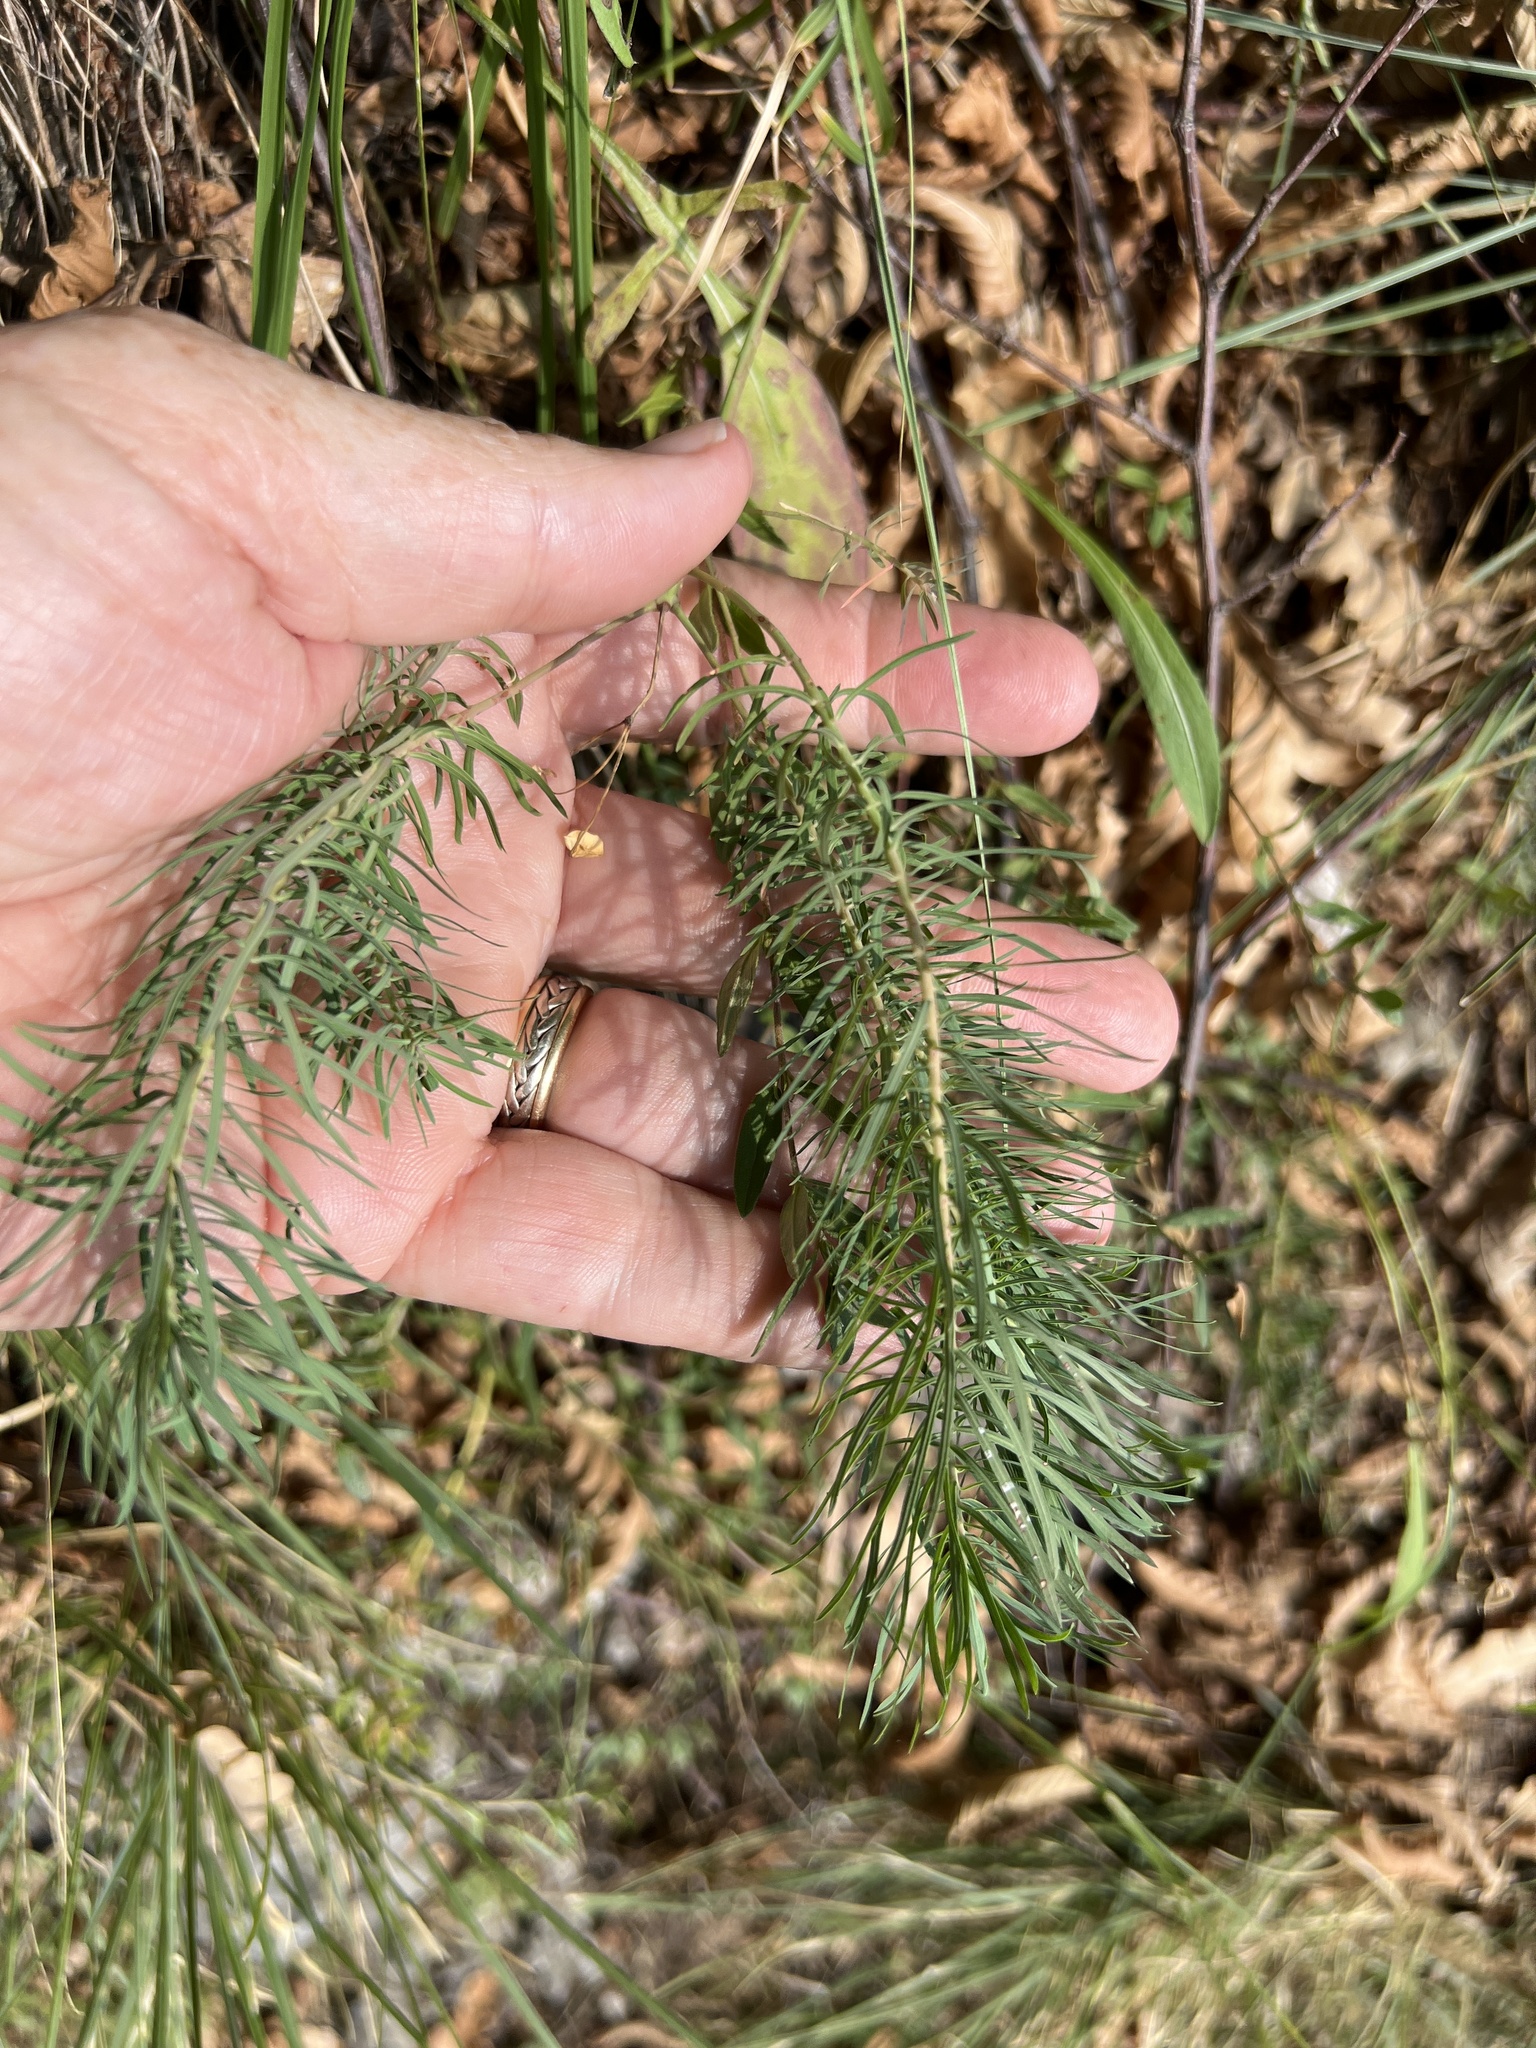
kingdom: Plantae
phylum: Tracheophyta
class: Magnoliopsida
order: Malpighiales
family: Euphorbiaceae
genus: Euphorbia
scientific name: Euphorbia cyparissias
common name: Cypress spurge
